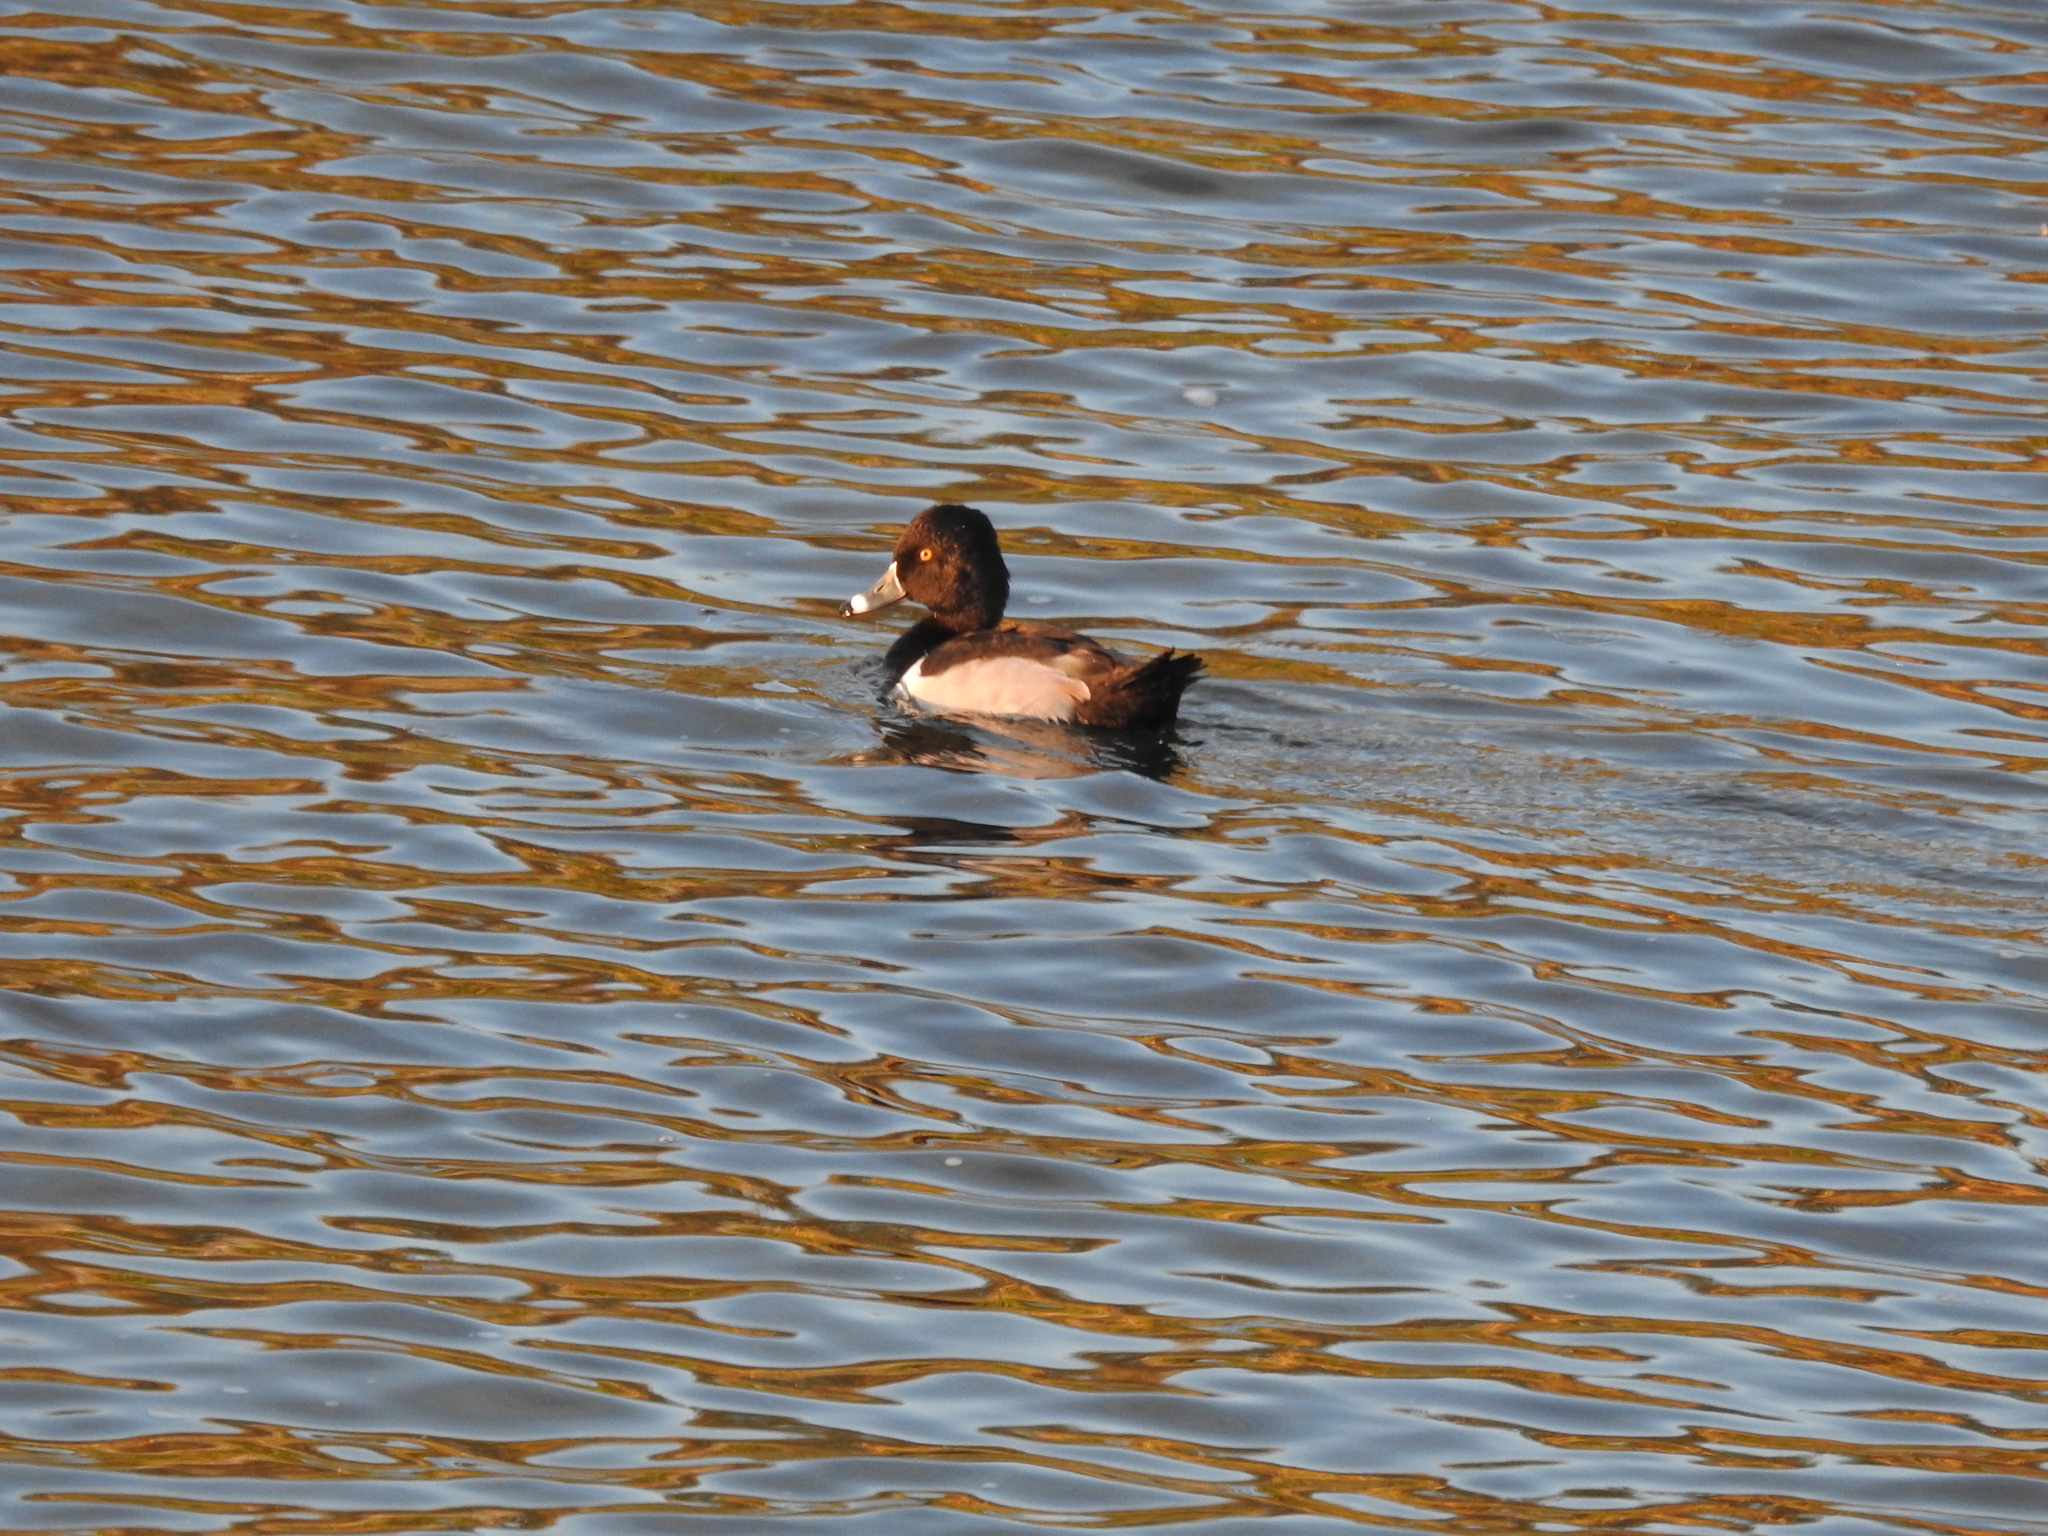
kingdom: Animalia
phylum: Chordata
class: Aves
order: Anseriformes
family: Anatidae
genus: Aythya
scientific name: Aythya collaris
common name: Ring-necked duck
